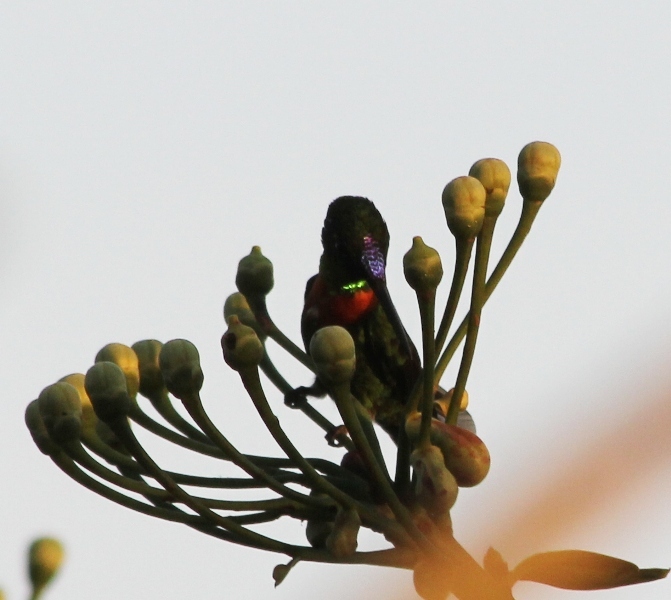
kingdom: Animalia
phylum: Chordata
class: Aves
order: Apodiformes
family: Trochilidae
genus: Heliodoxa
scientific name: Heliodoxa aurescens
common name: Gould's jewelfront
